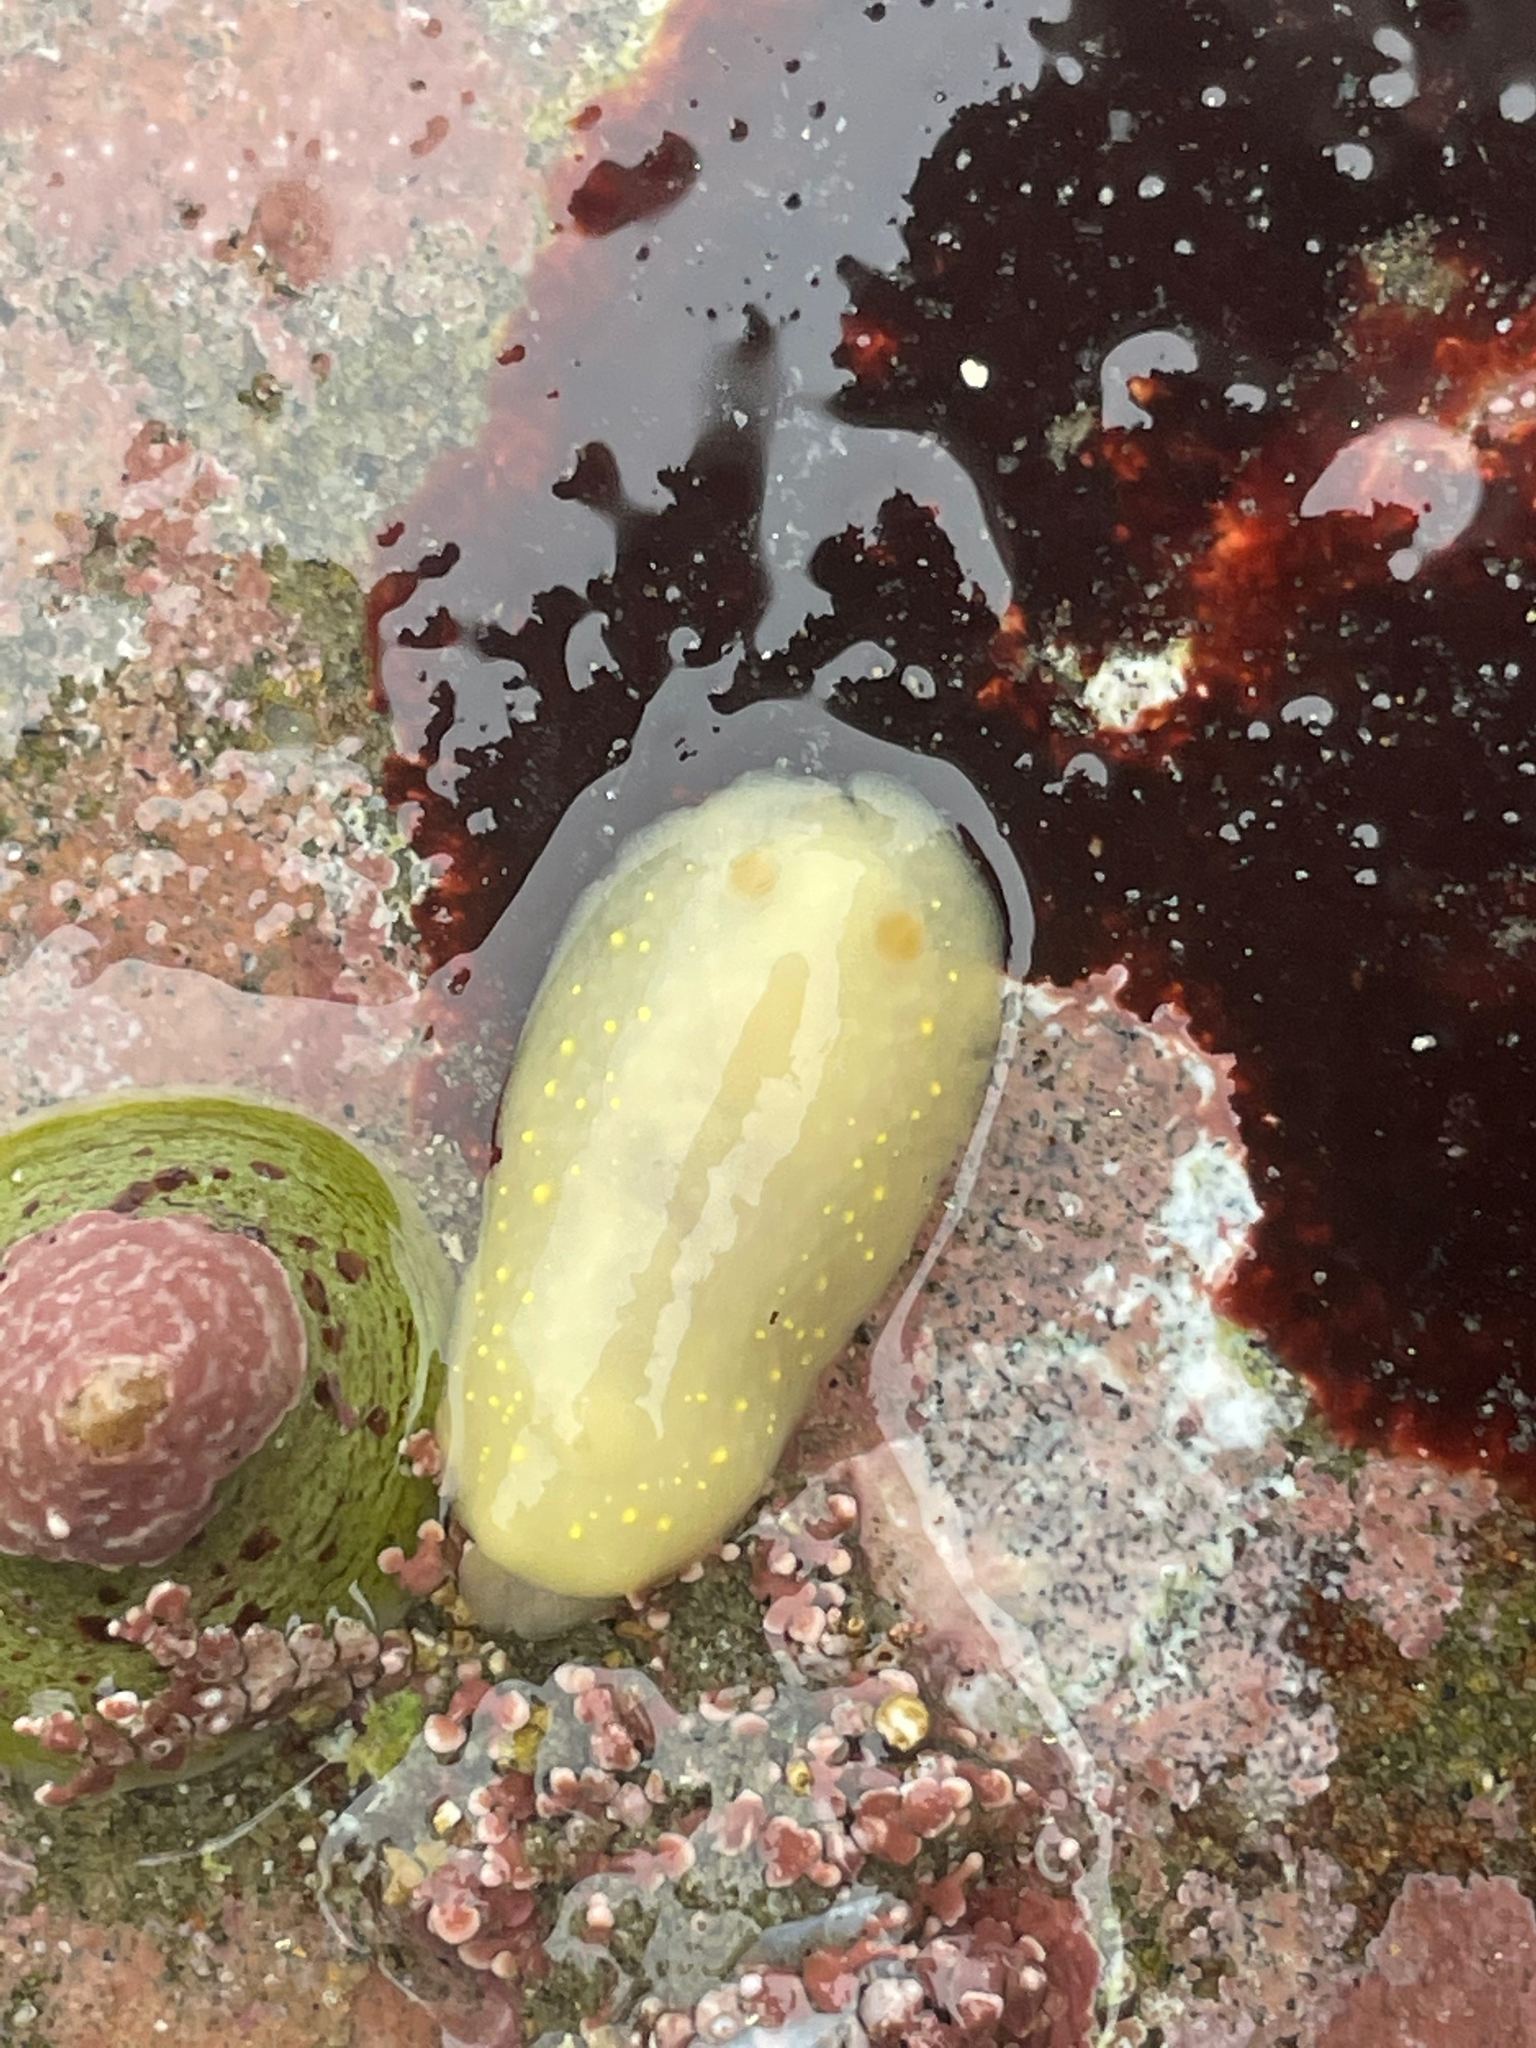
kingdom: Animalia
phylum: Mollusca
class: Gastropoda
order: Nudibranchia
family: Cadlinidae
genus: Cadlina
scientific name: Cadlina modesta
